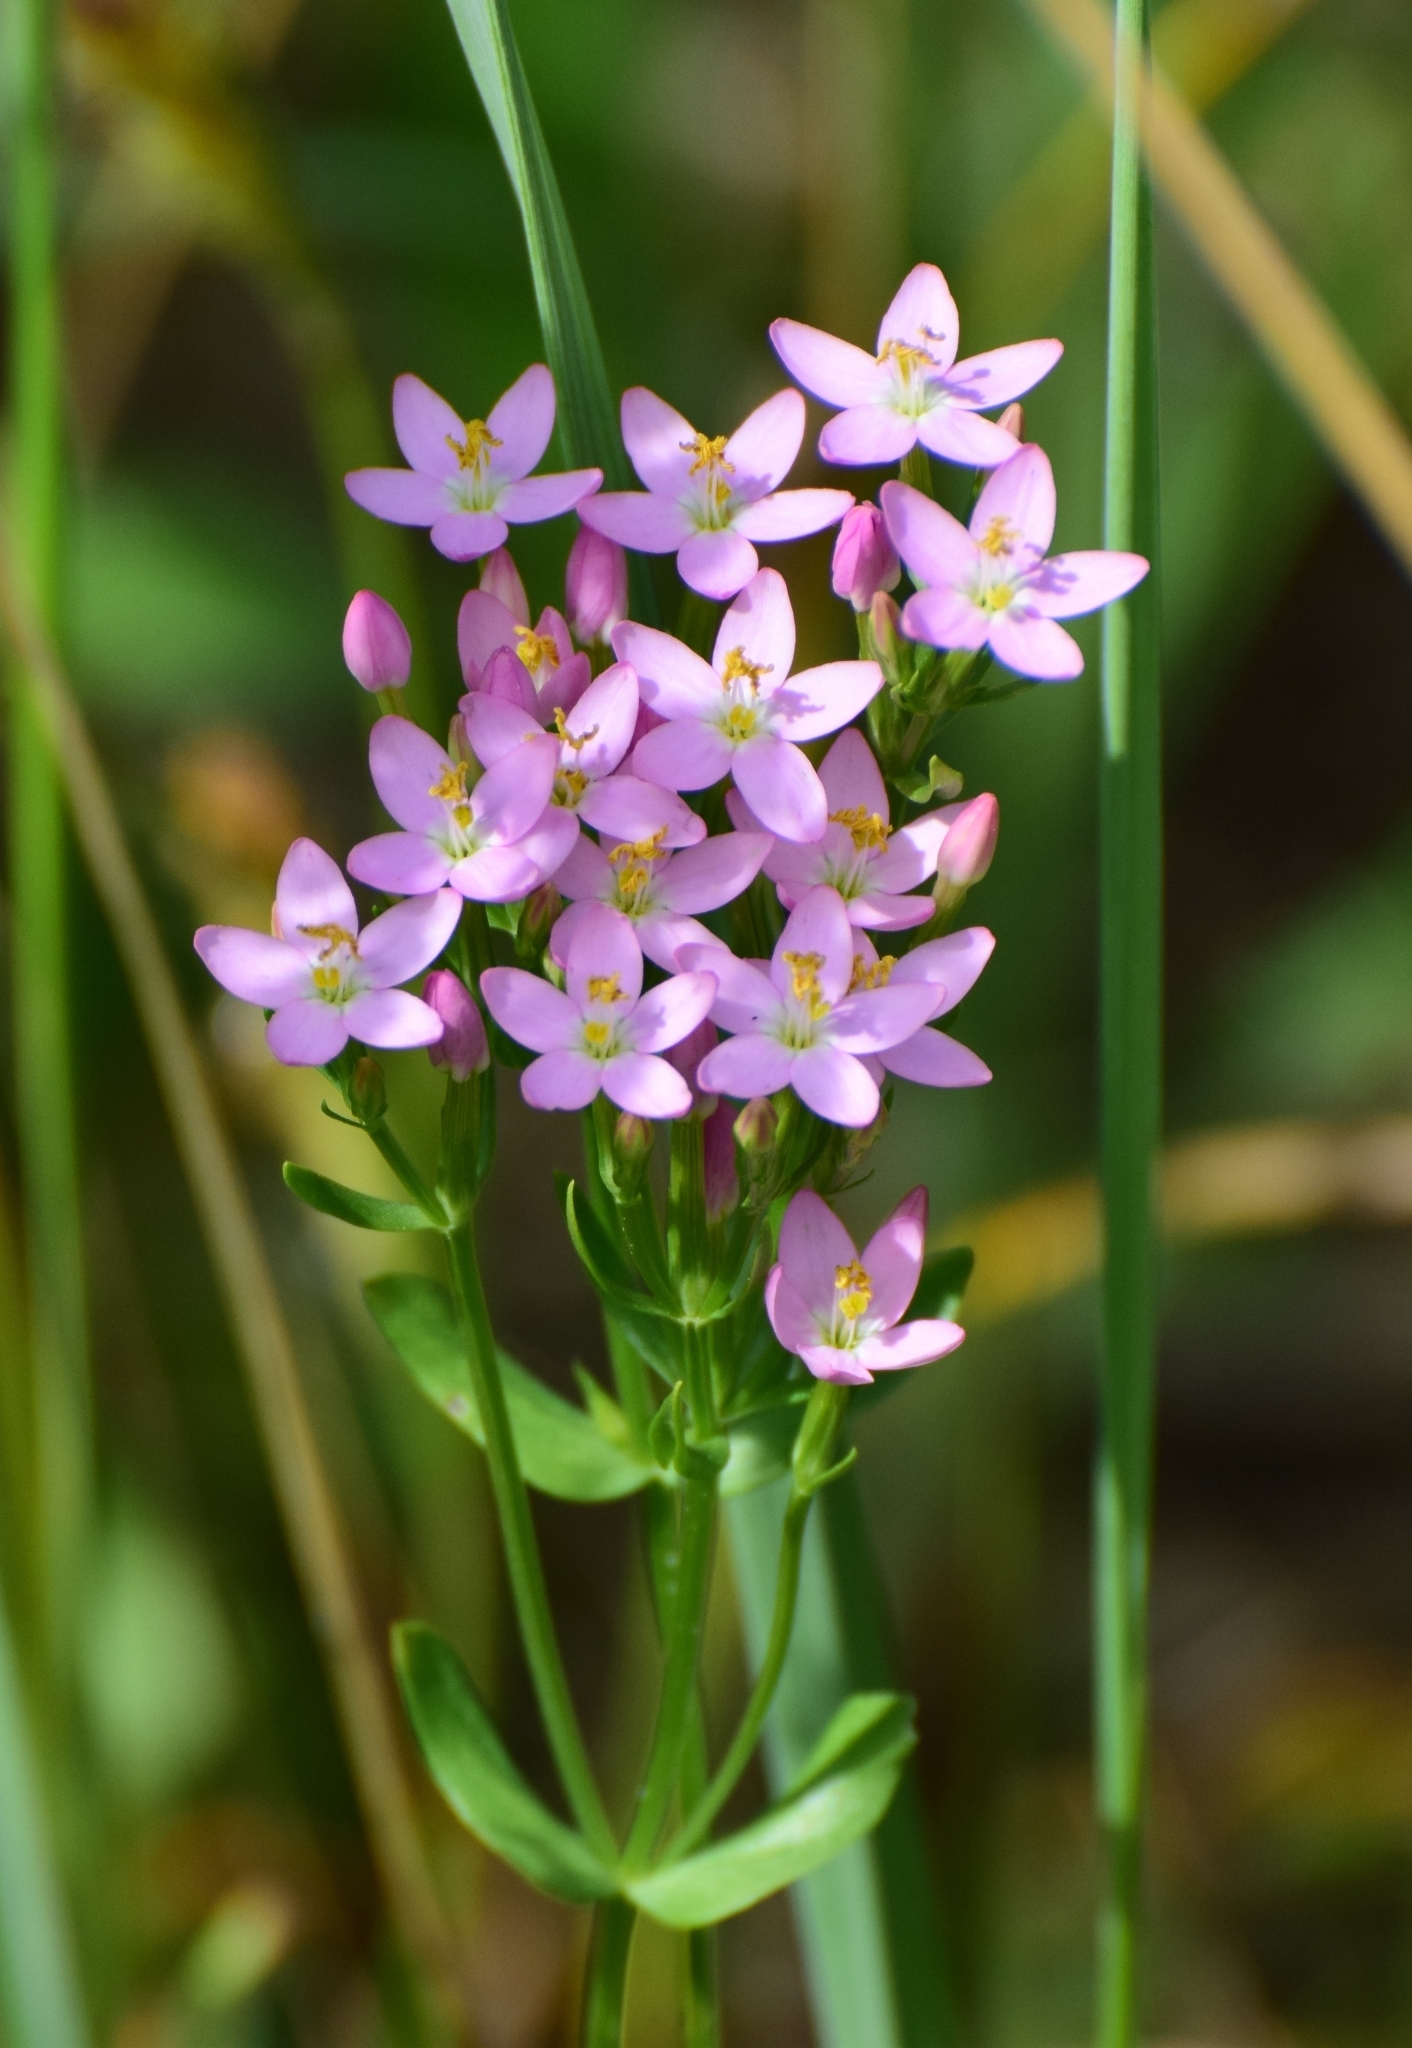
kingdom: Plantae
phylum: Tracheophyta
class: Magnoliopsida
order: Gentianales
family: Gentianaceae
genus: Centaurium
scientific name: Centaurium erythraea
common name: Common centaury
